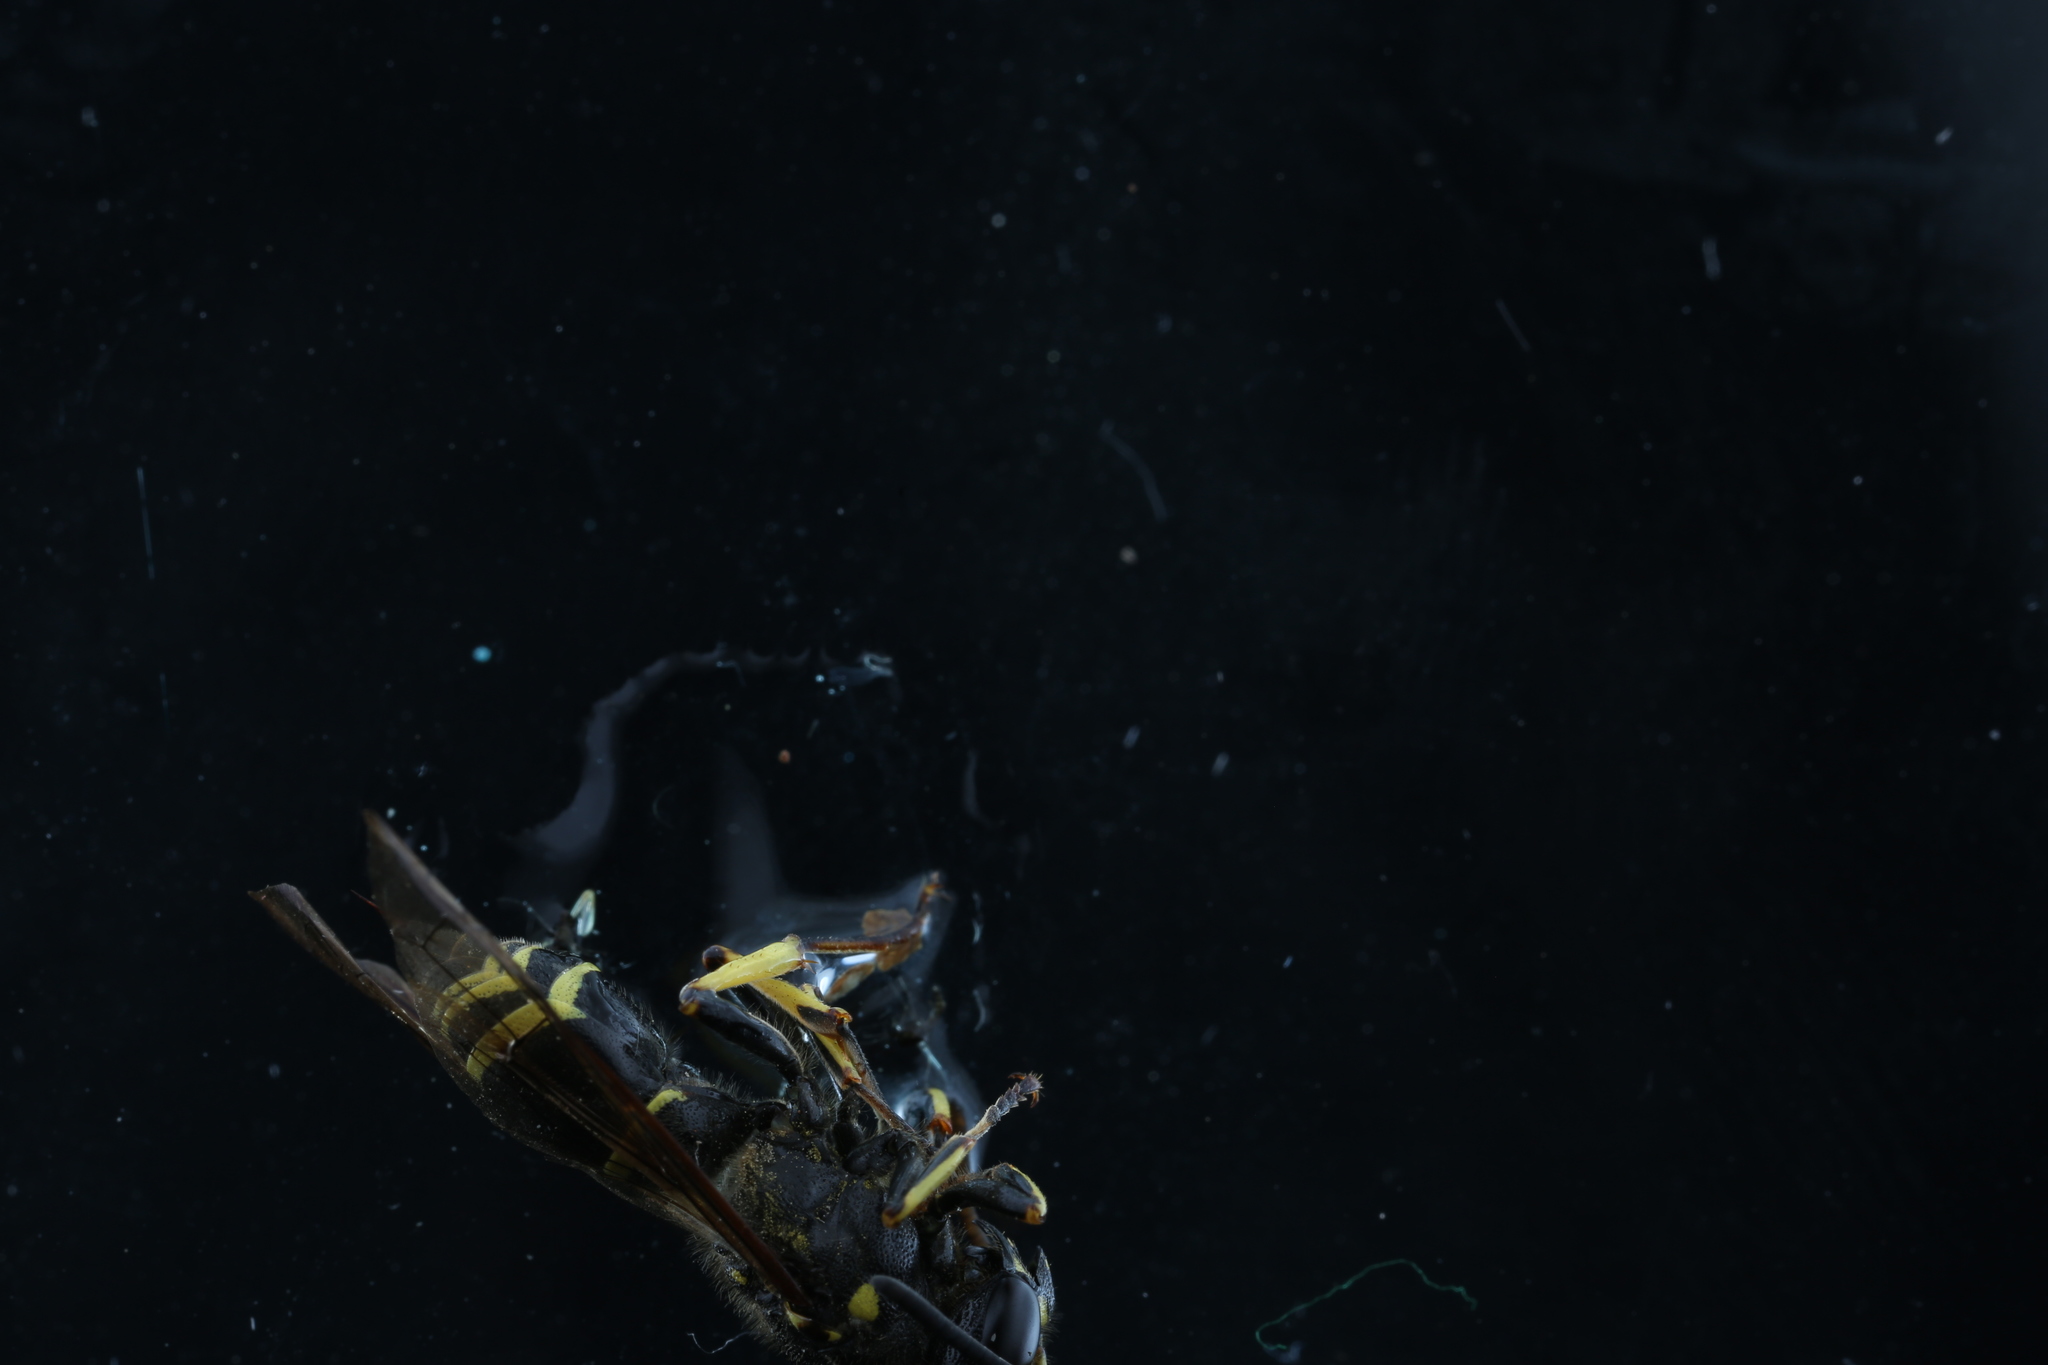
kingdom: Animalia
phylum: Arthropoda
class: Insecta
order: Hymenoptera
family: Vespidae
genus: Ancistrocerus
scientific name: Ancistrocerus
